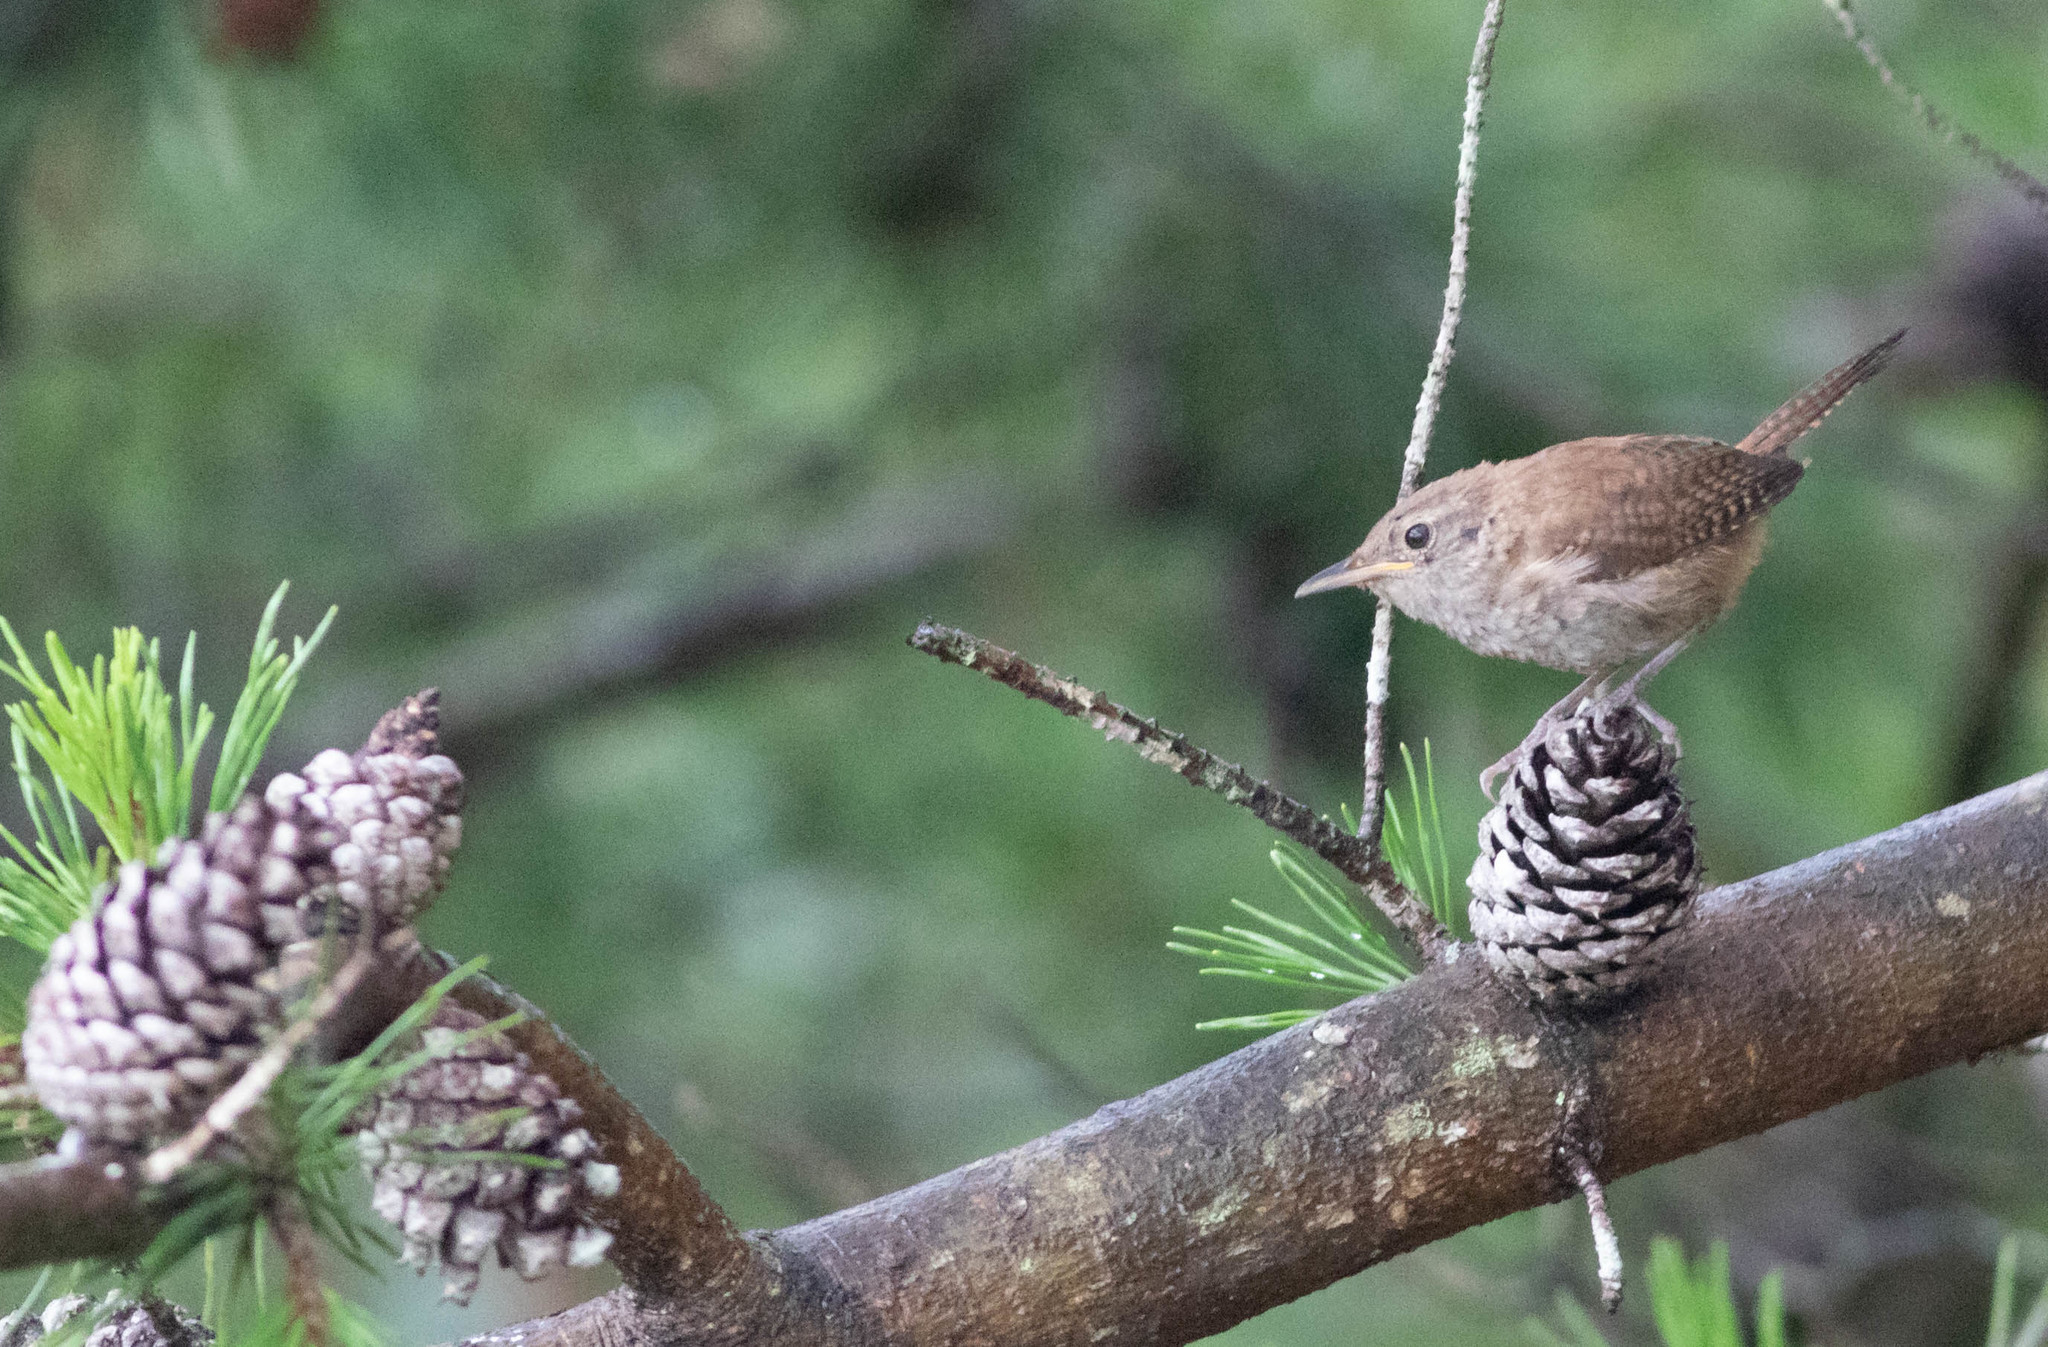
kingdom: Animalia
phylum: Chordata
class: Aves
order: Passeriformes
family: Troglodytidae
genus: Troglodytes
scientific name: Troglodytes aedon
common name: House wren
